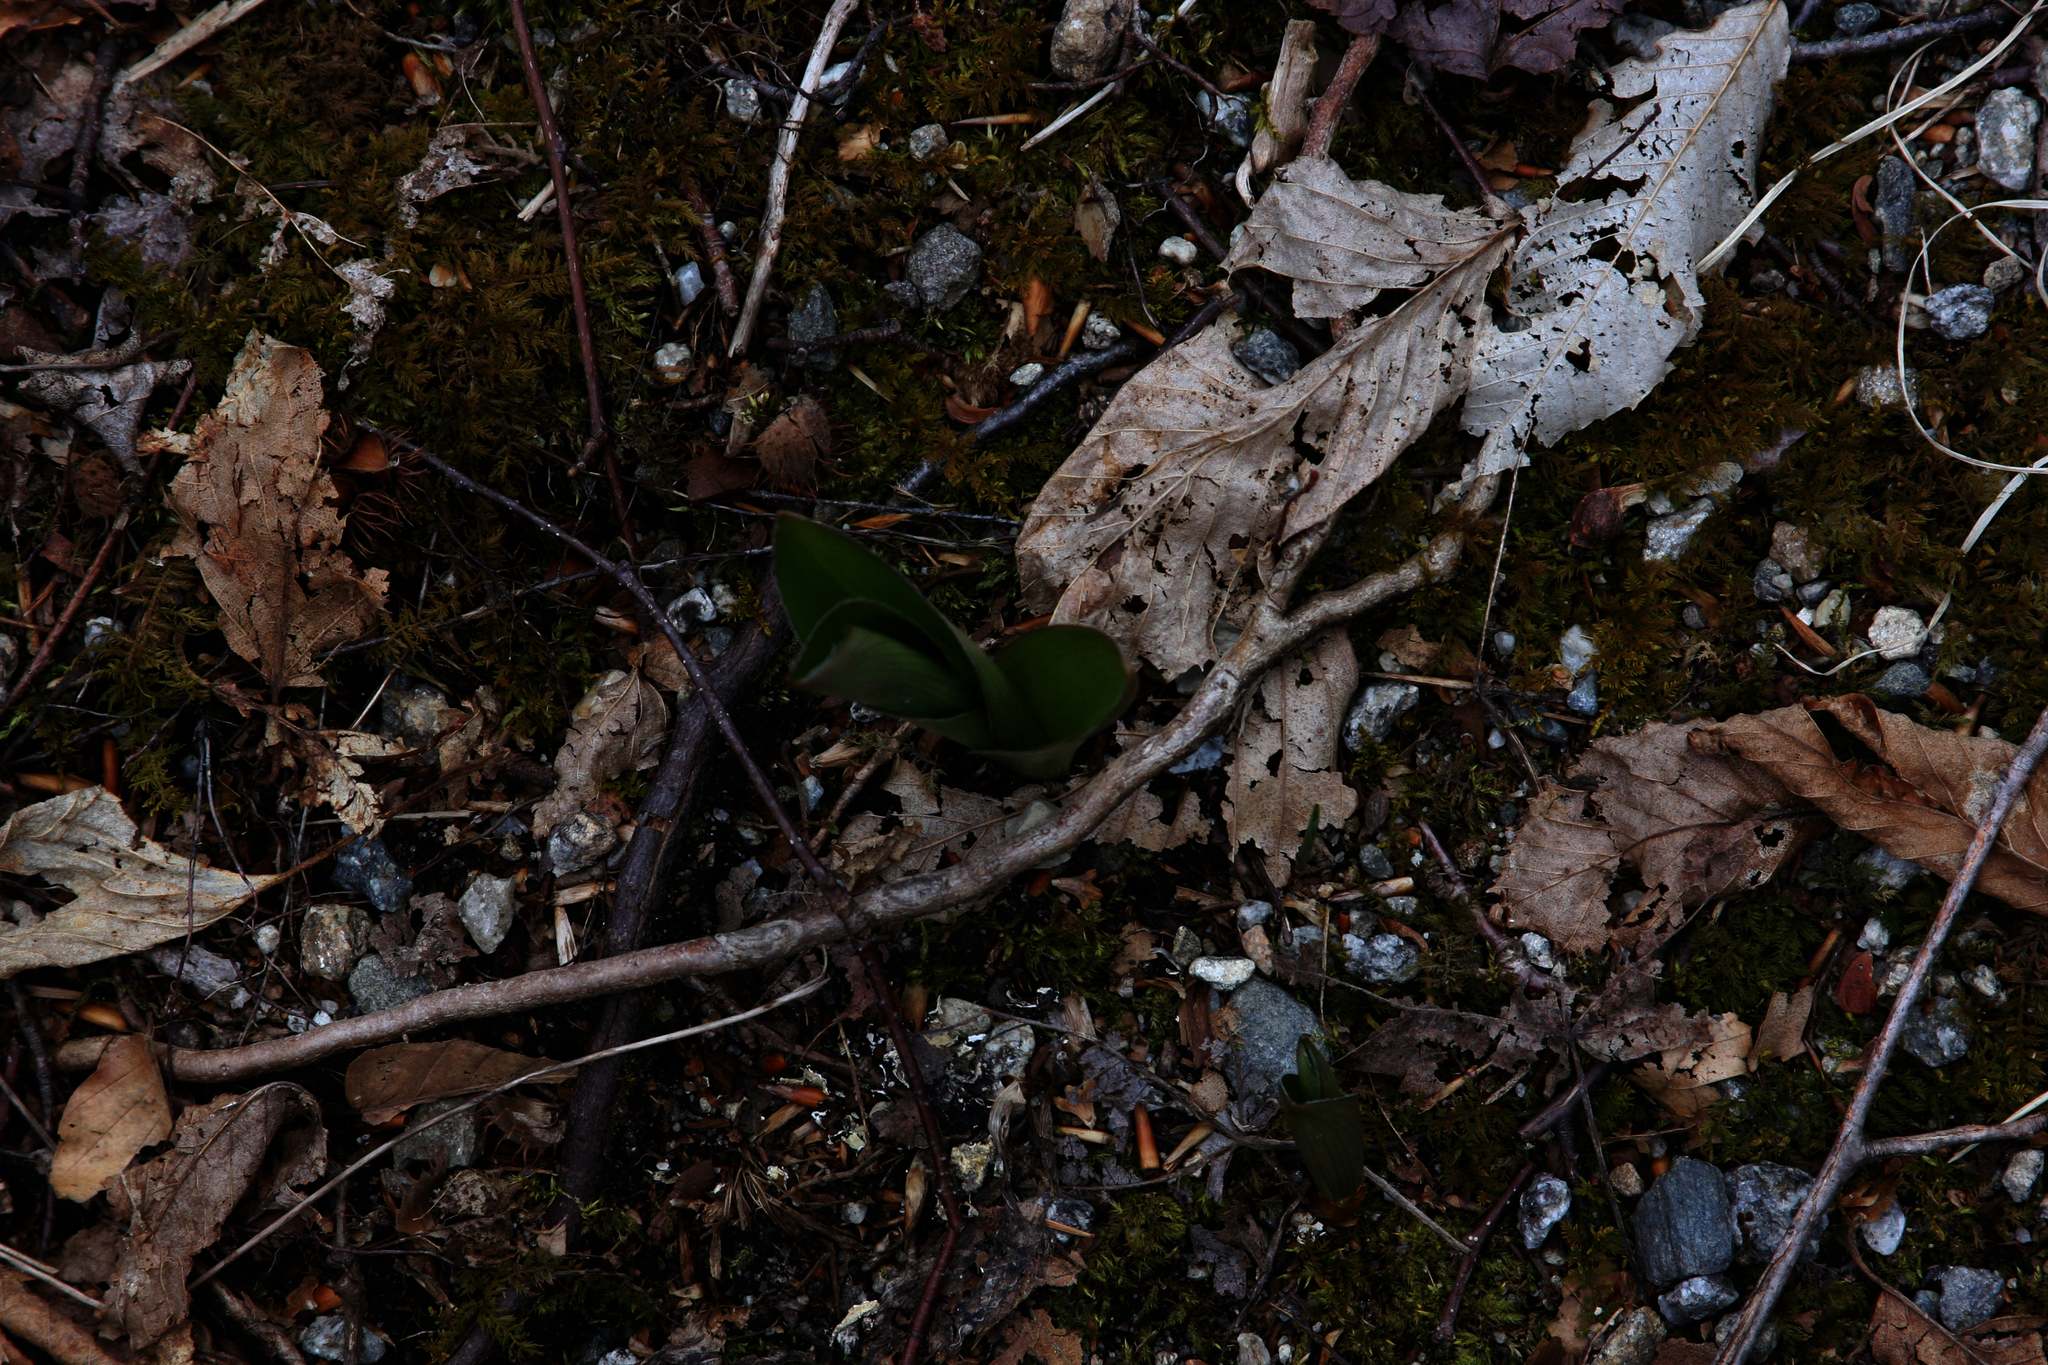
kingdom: Plantae
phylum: Tracheophyta
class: Liliopsida
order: Liliales
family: Liliaceae
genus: Clintonia
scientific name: Clintonia borealis
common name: Yellow clintonia
